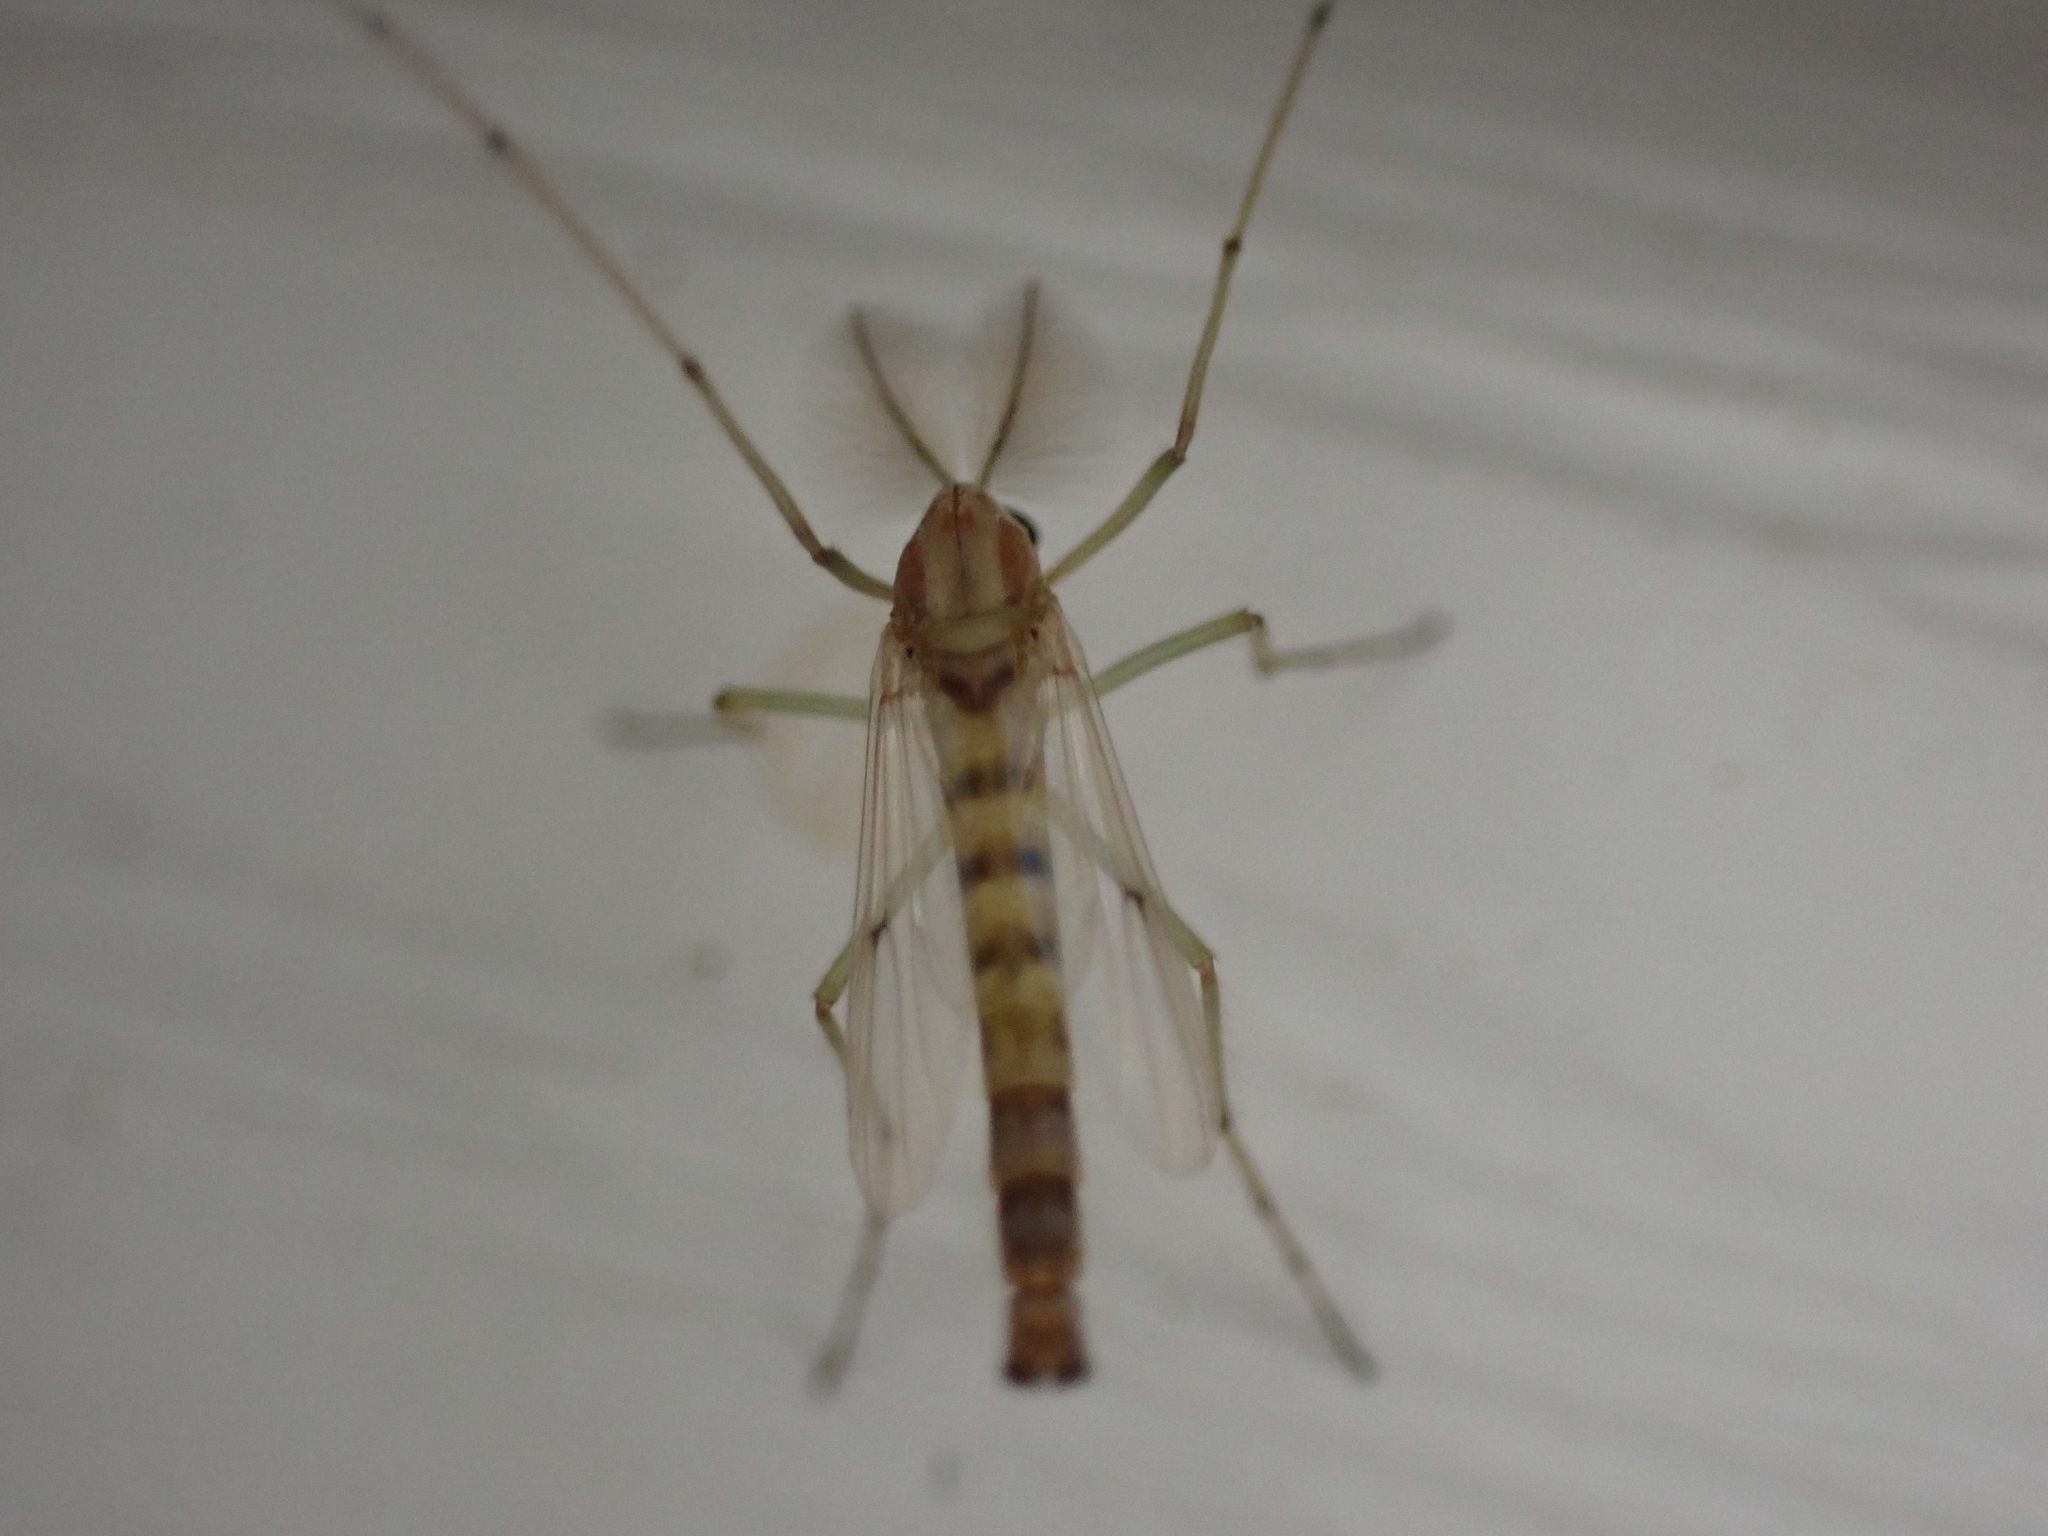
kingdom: Animalia
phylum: Arthropoda
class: Insecta
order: Diptera
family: Chironomidae
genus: Chironomus
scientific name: Chironomus crassicaudatus
